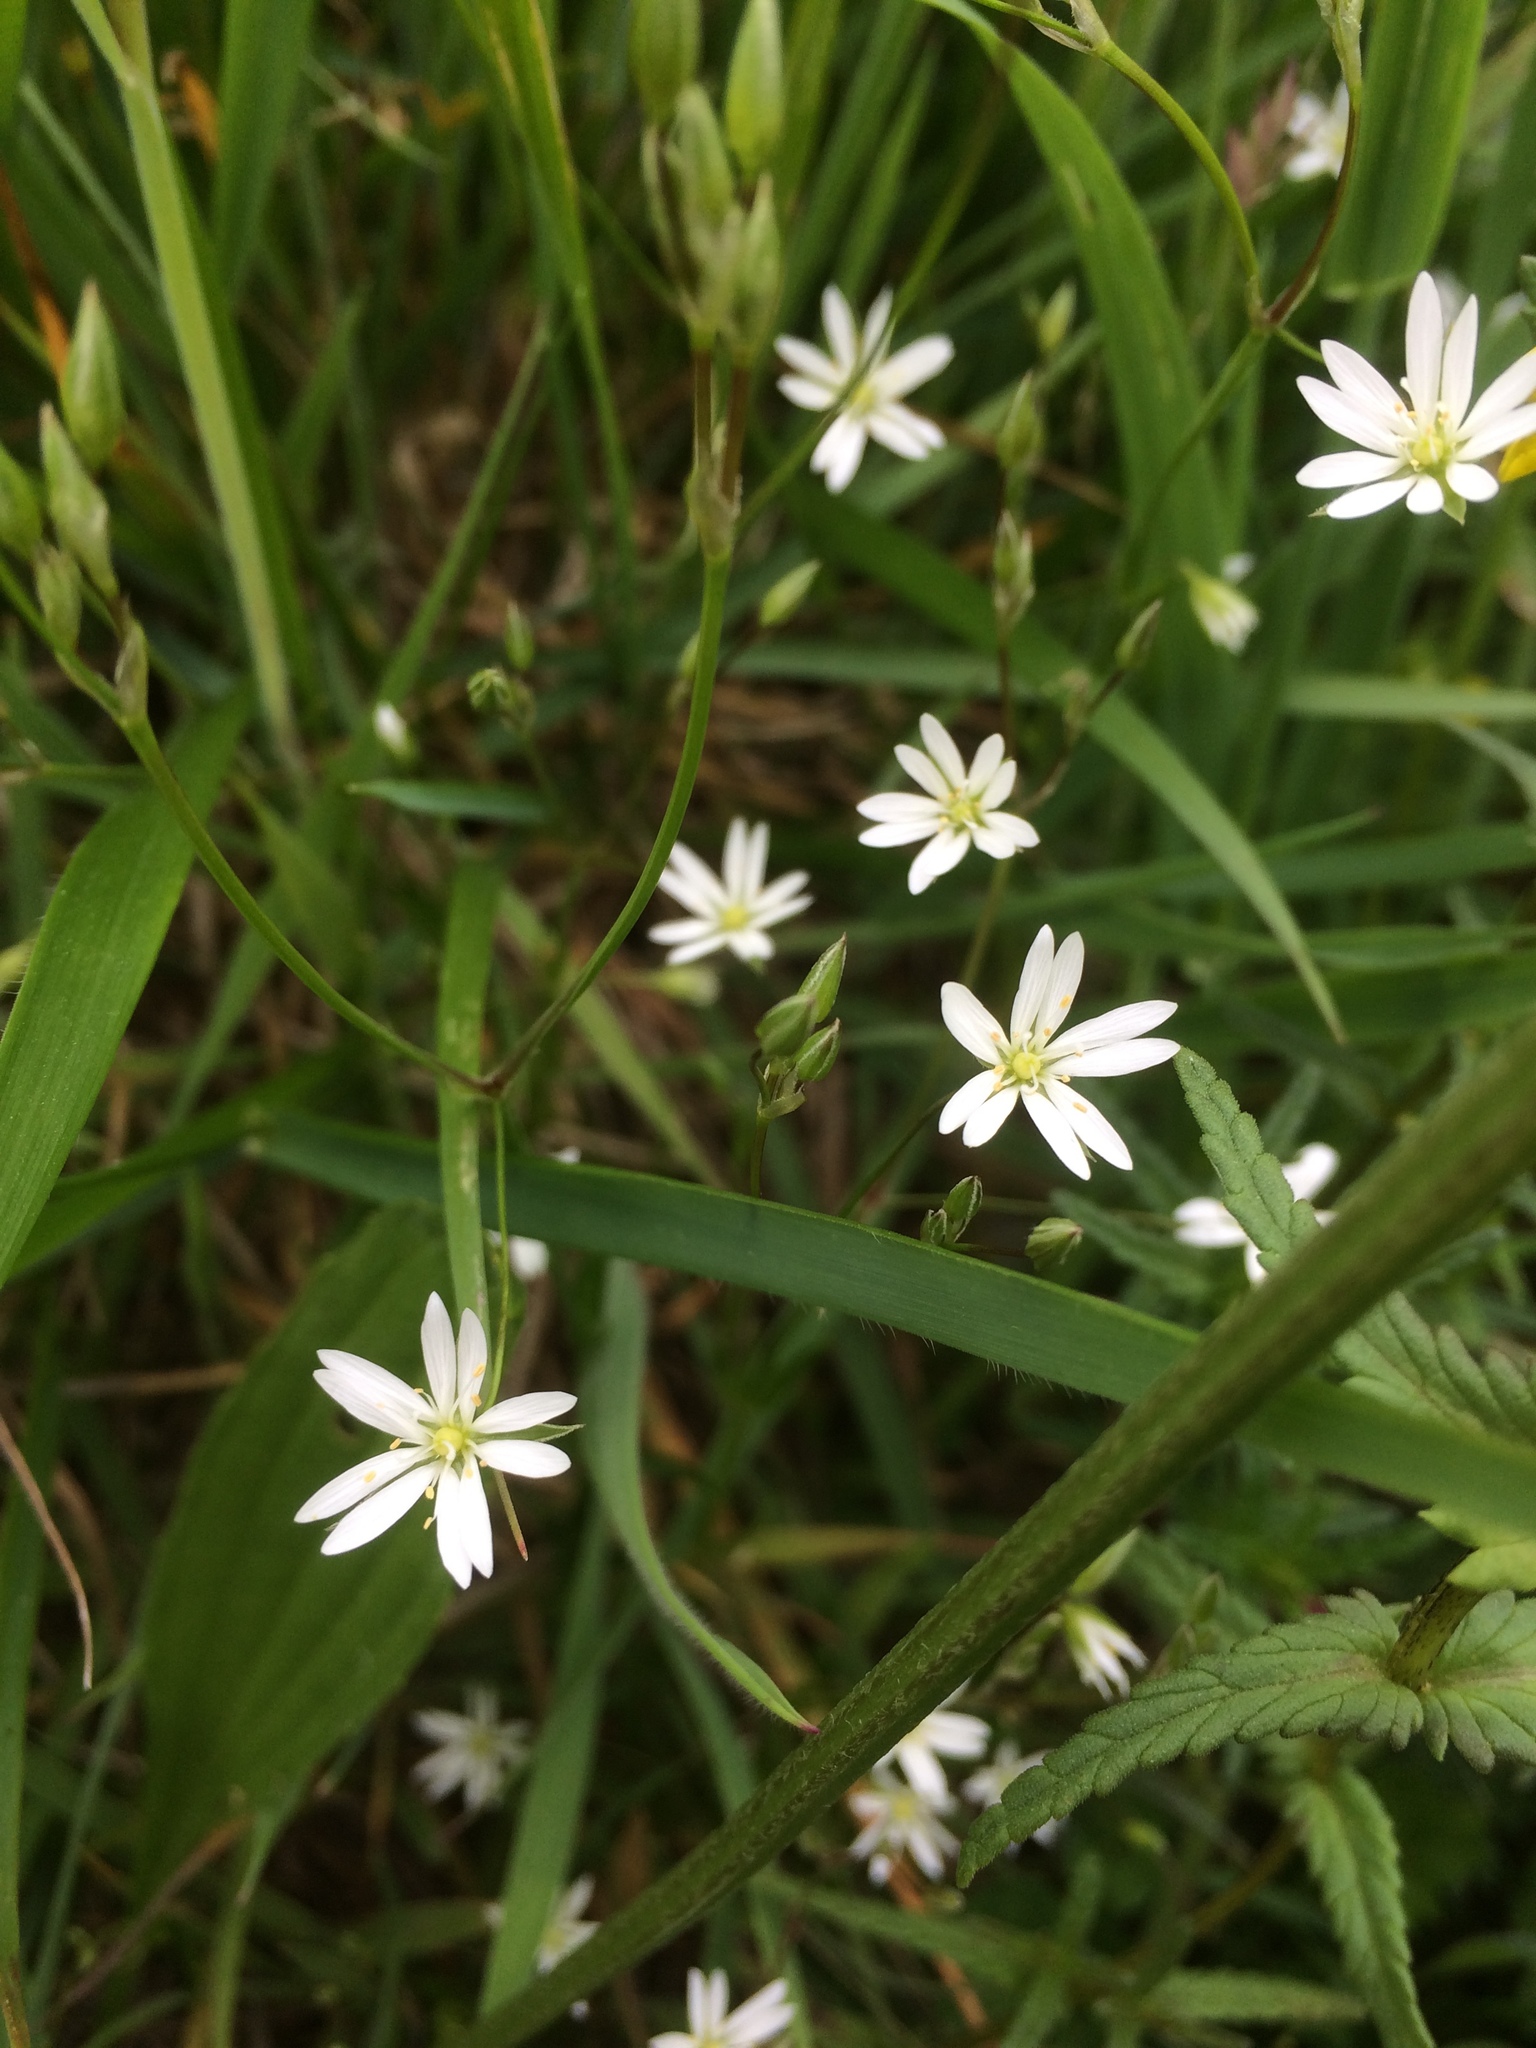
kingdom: Plantae
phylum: Tracheophyta
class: Magnoliopsida
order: Caryophyllales
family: Caryophyllaceae
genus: Stellaria
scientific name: Stellaria graminea
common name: Grass-like starwort
